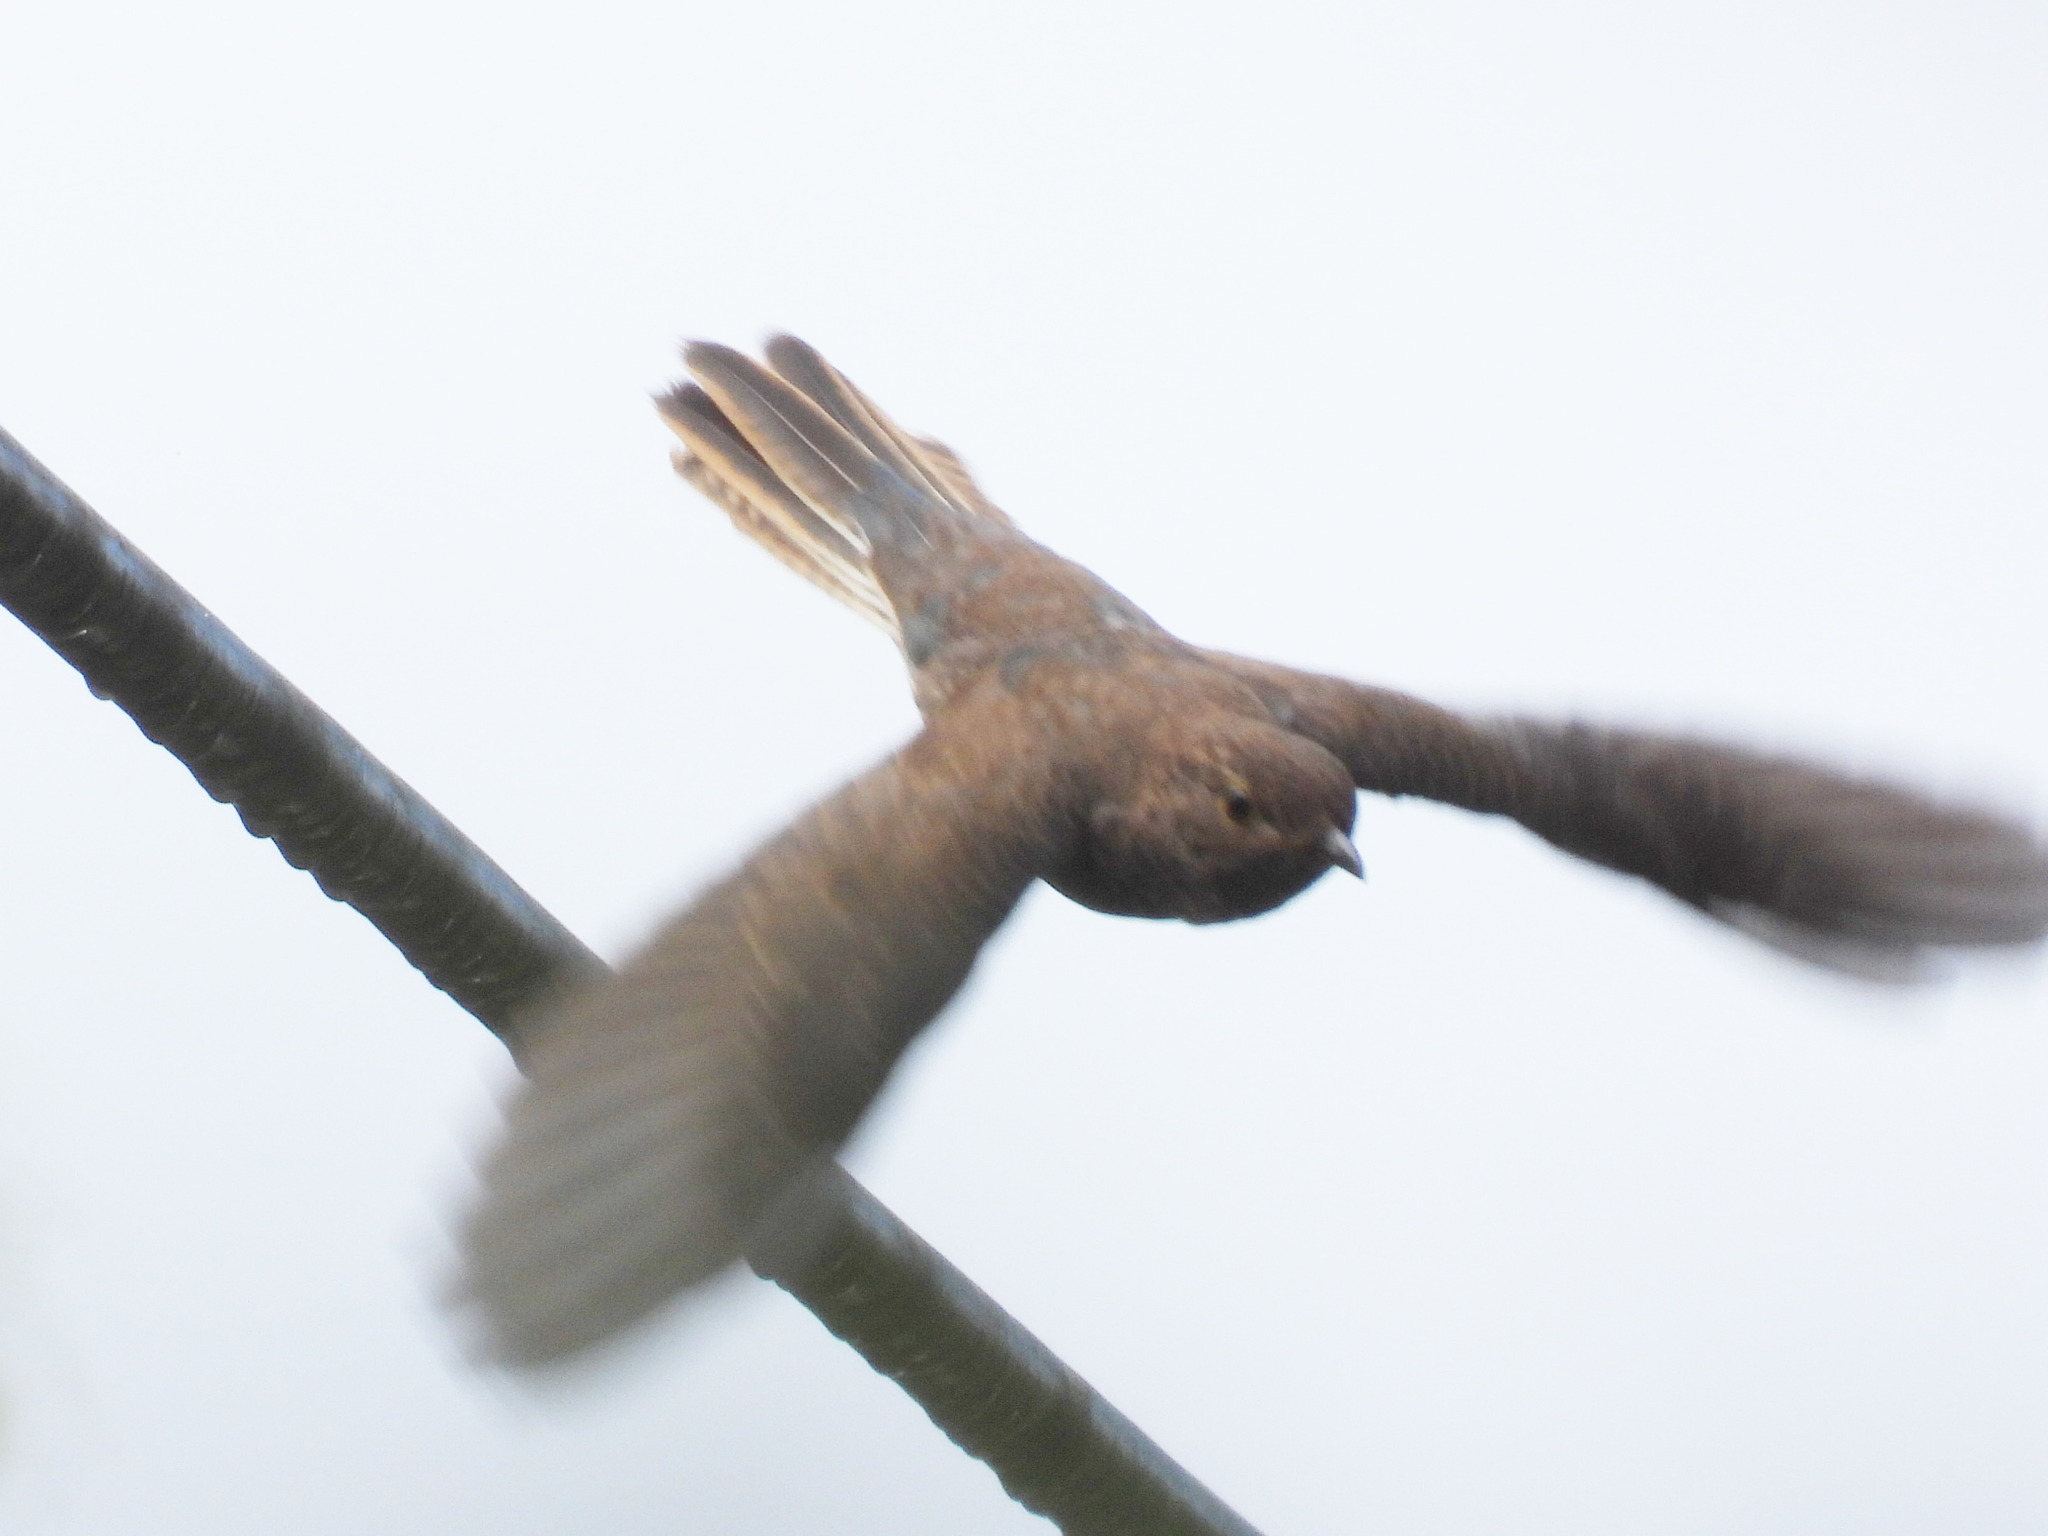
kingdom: Animalia
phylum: Chordata
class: Aves
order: Cuculiformes
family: Cuculidae
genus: Cacomantis
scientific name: Cacomantis flabelliformis
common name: Fan-tailed cuckoo
